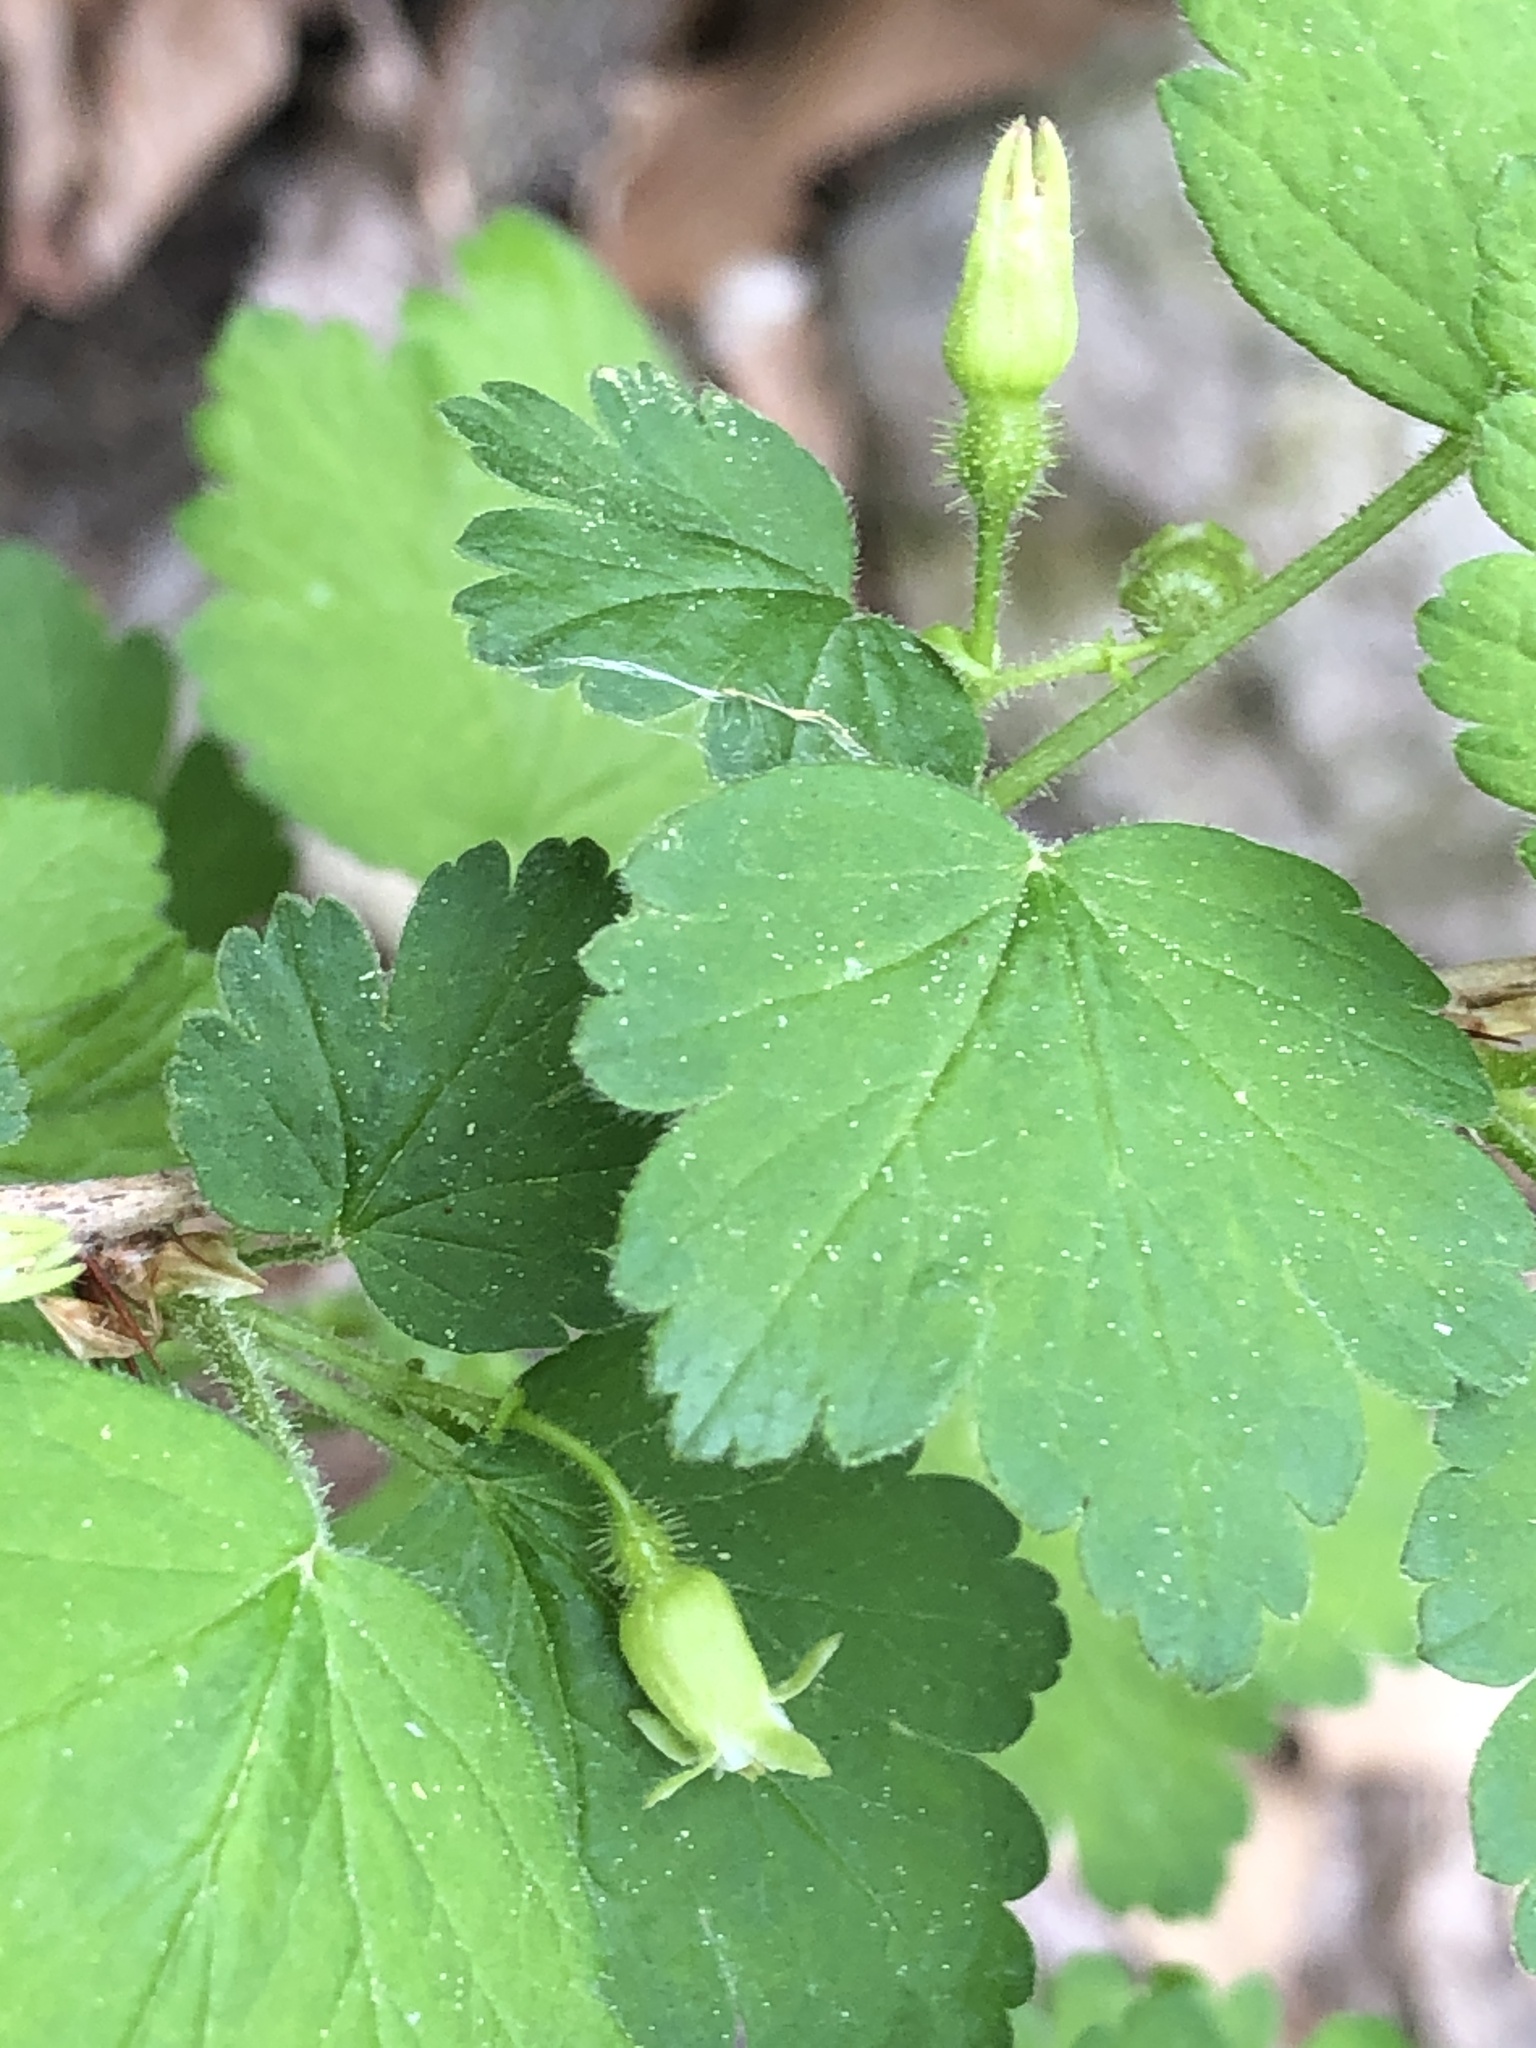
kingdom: Plantae
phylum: Tracheophyta
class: Magnoliopsida
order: Saxifragales
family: Grossulariaceae
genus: Ribes
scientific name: Ribes cynosbati
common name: American gooseberry
